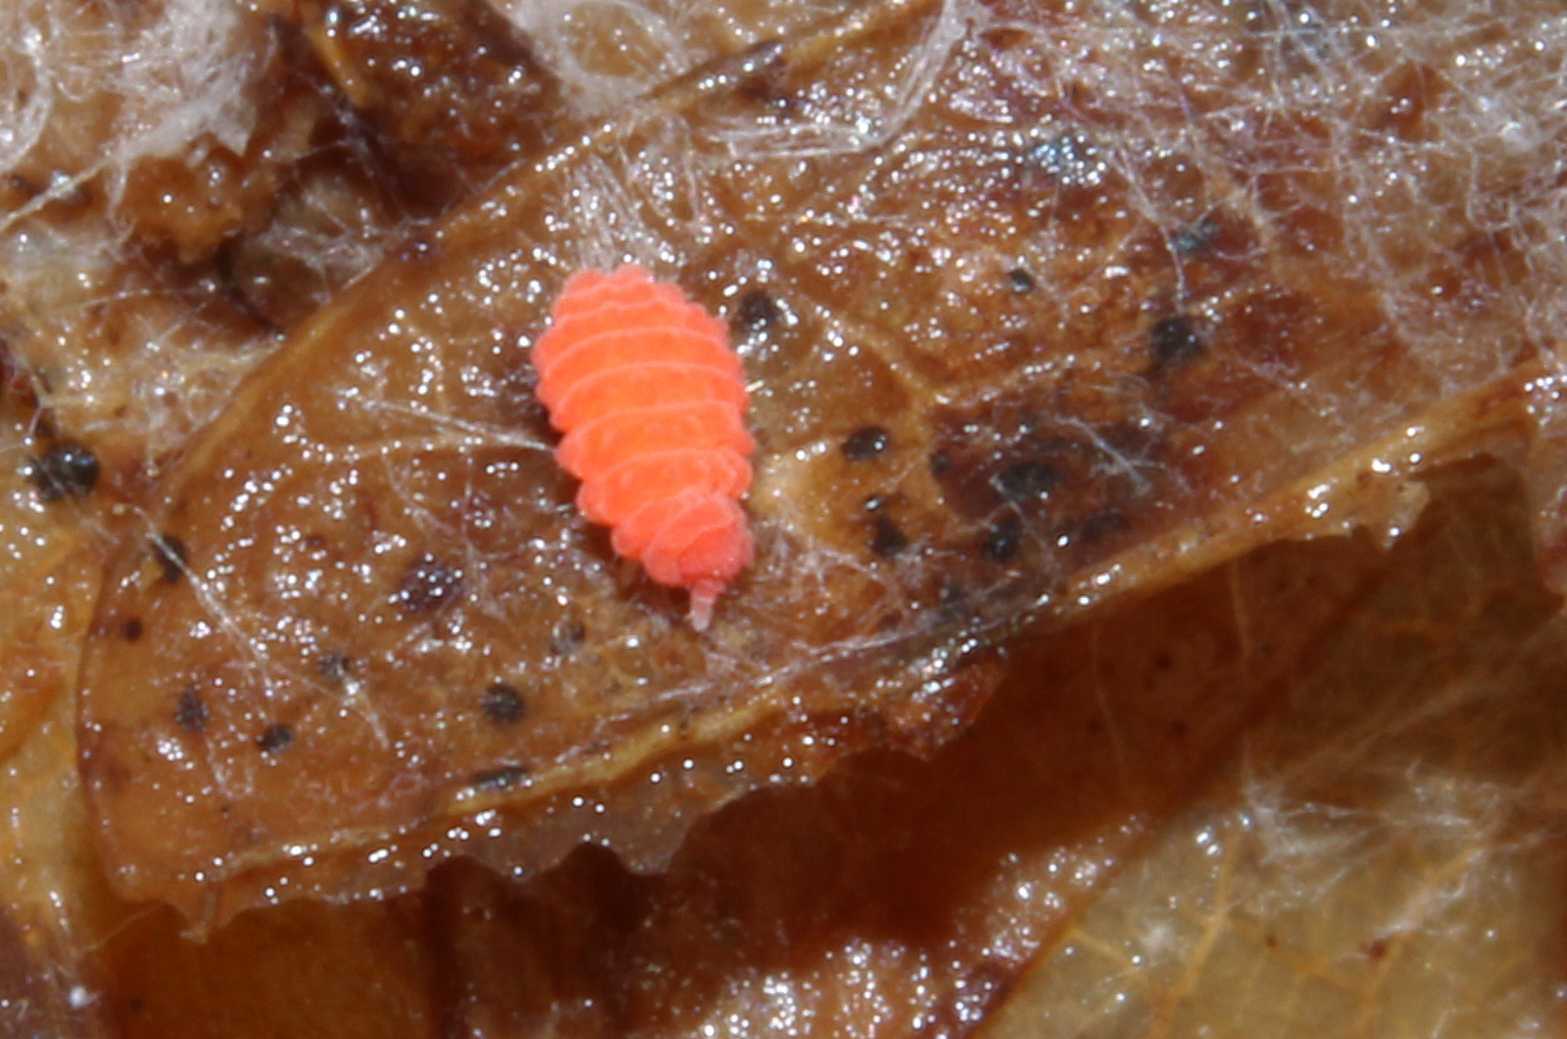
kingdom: Animalia
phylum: Arthropoda
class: Collembola
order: Poduromorpha
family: Neanuridae
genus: Bilobella
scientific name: Bilobella braunerae
